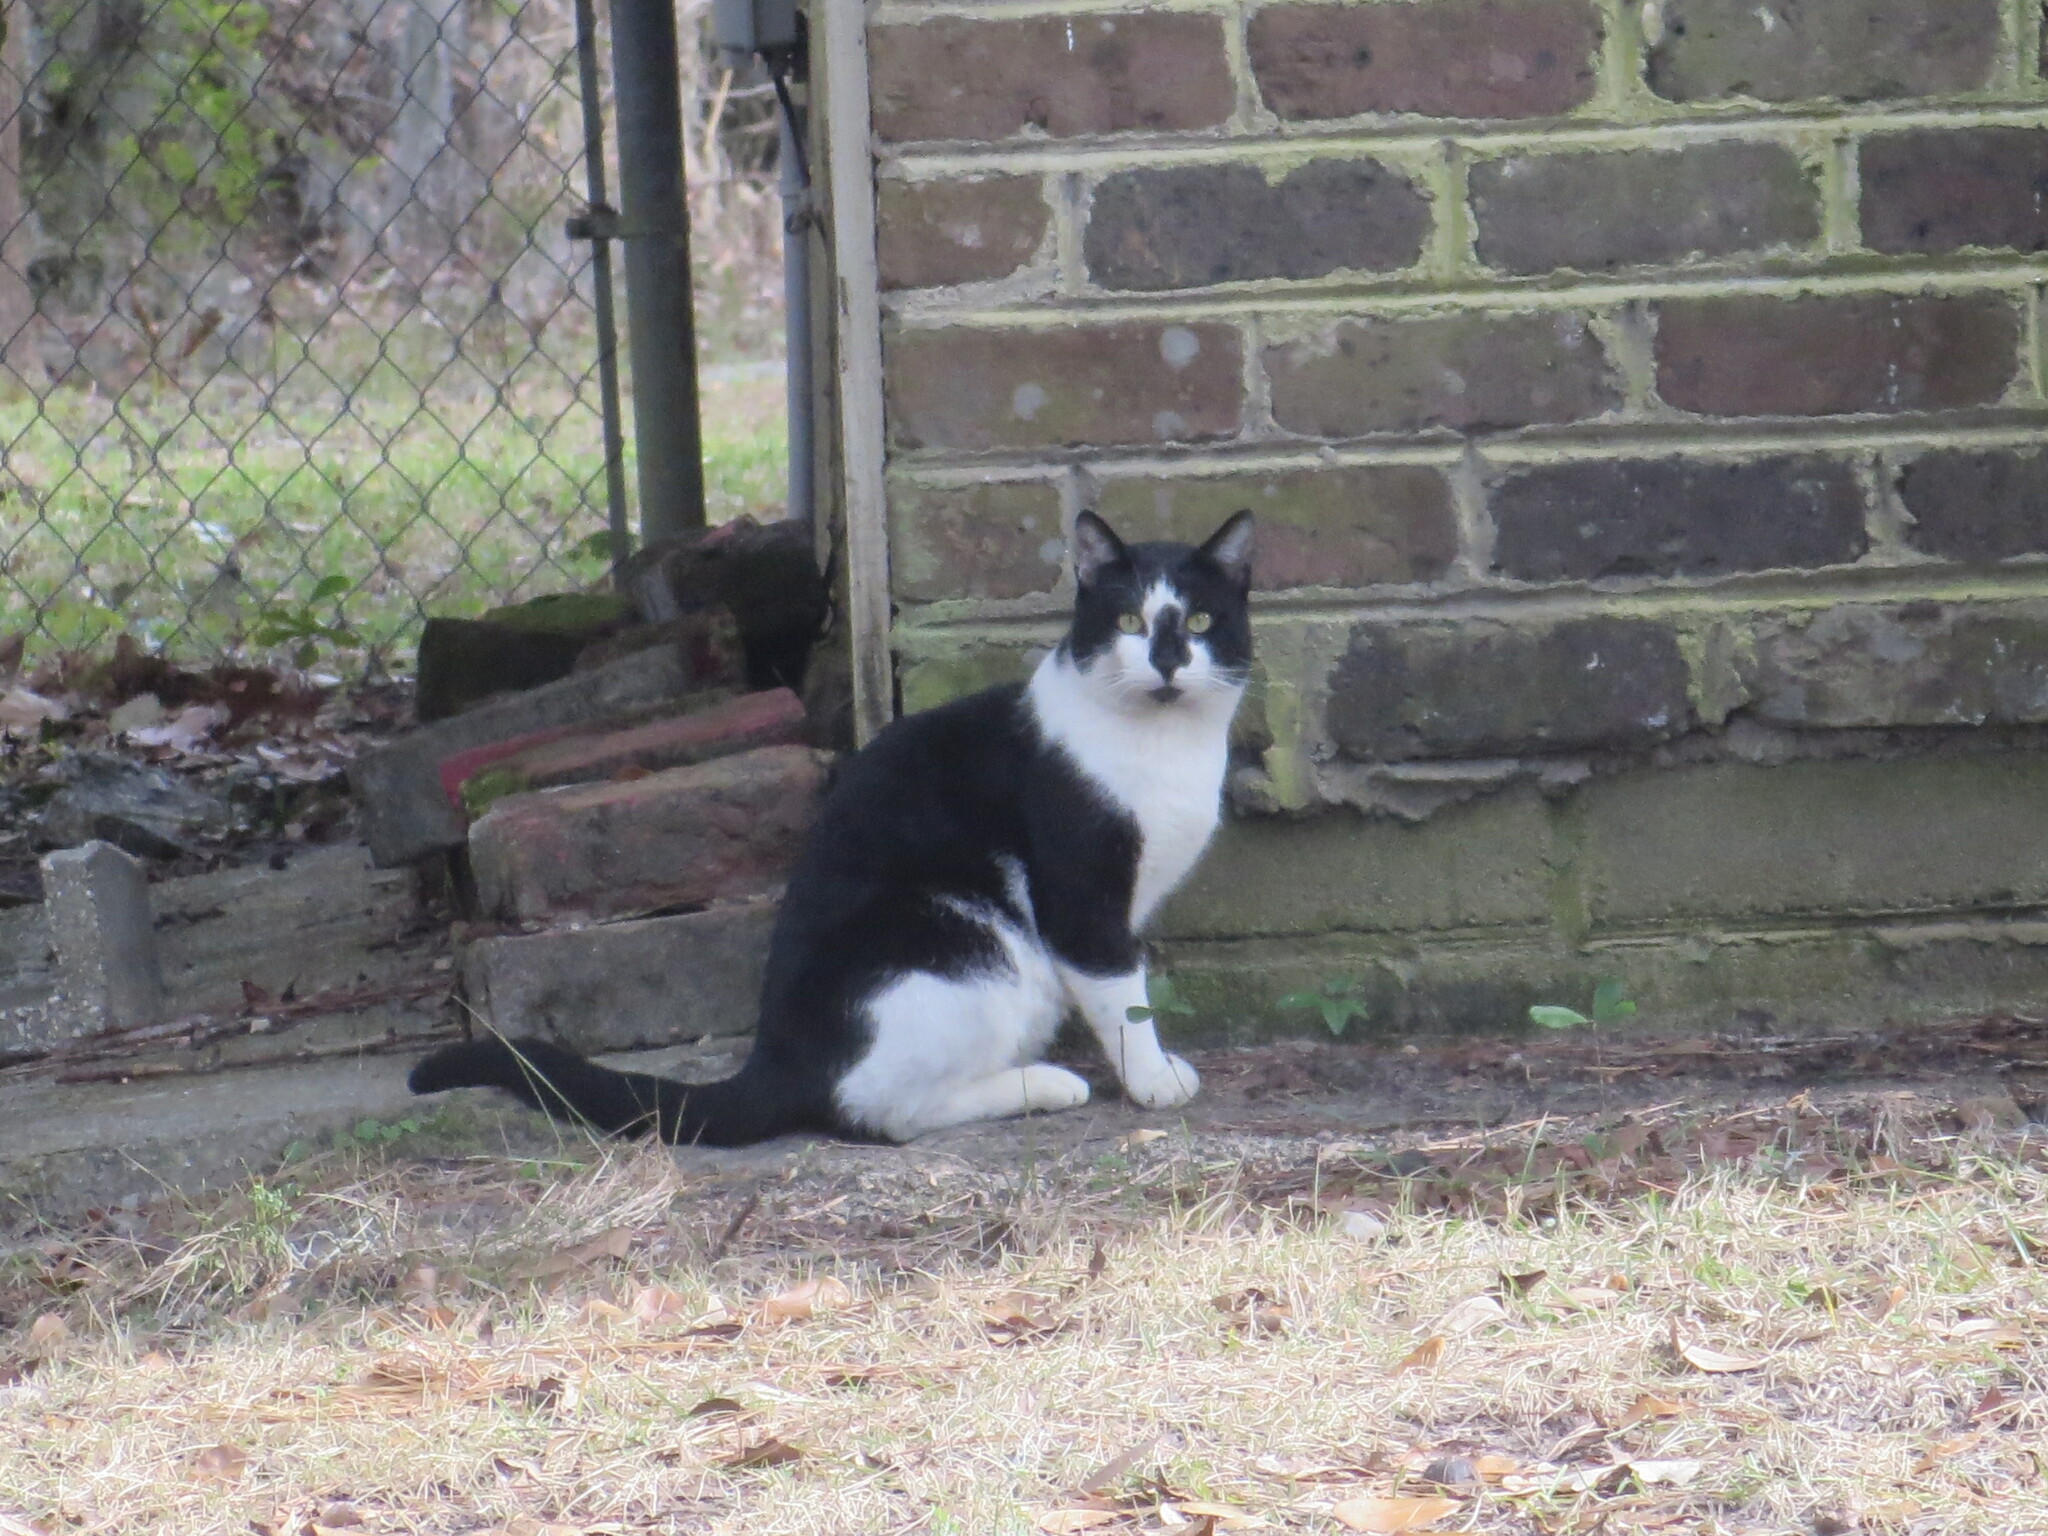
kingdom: Animalia
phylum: Chordata
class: Mammalia
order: Carnivora
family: Felidae
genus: Felis
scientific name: Felis catus
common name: Domestic cat
